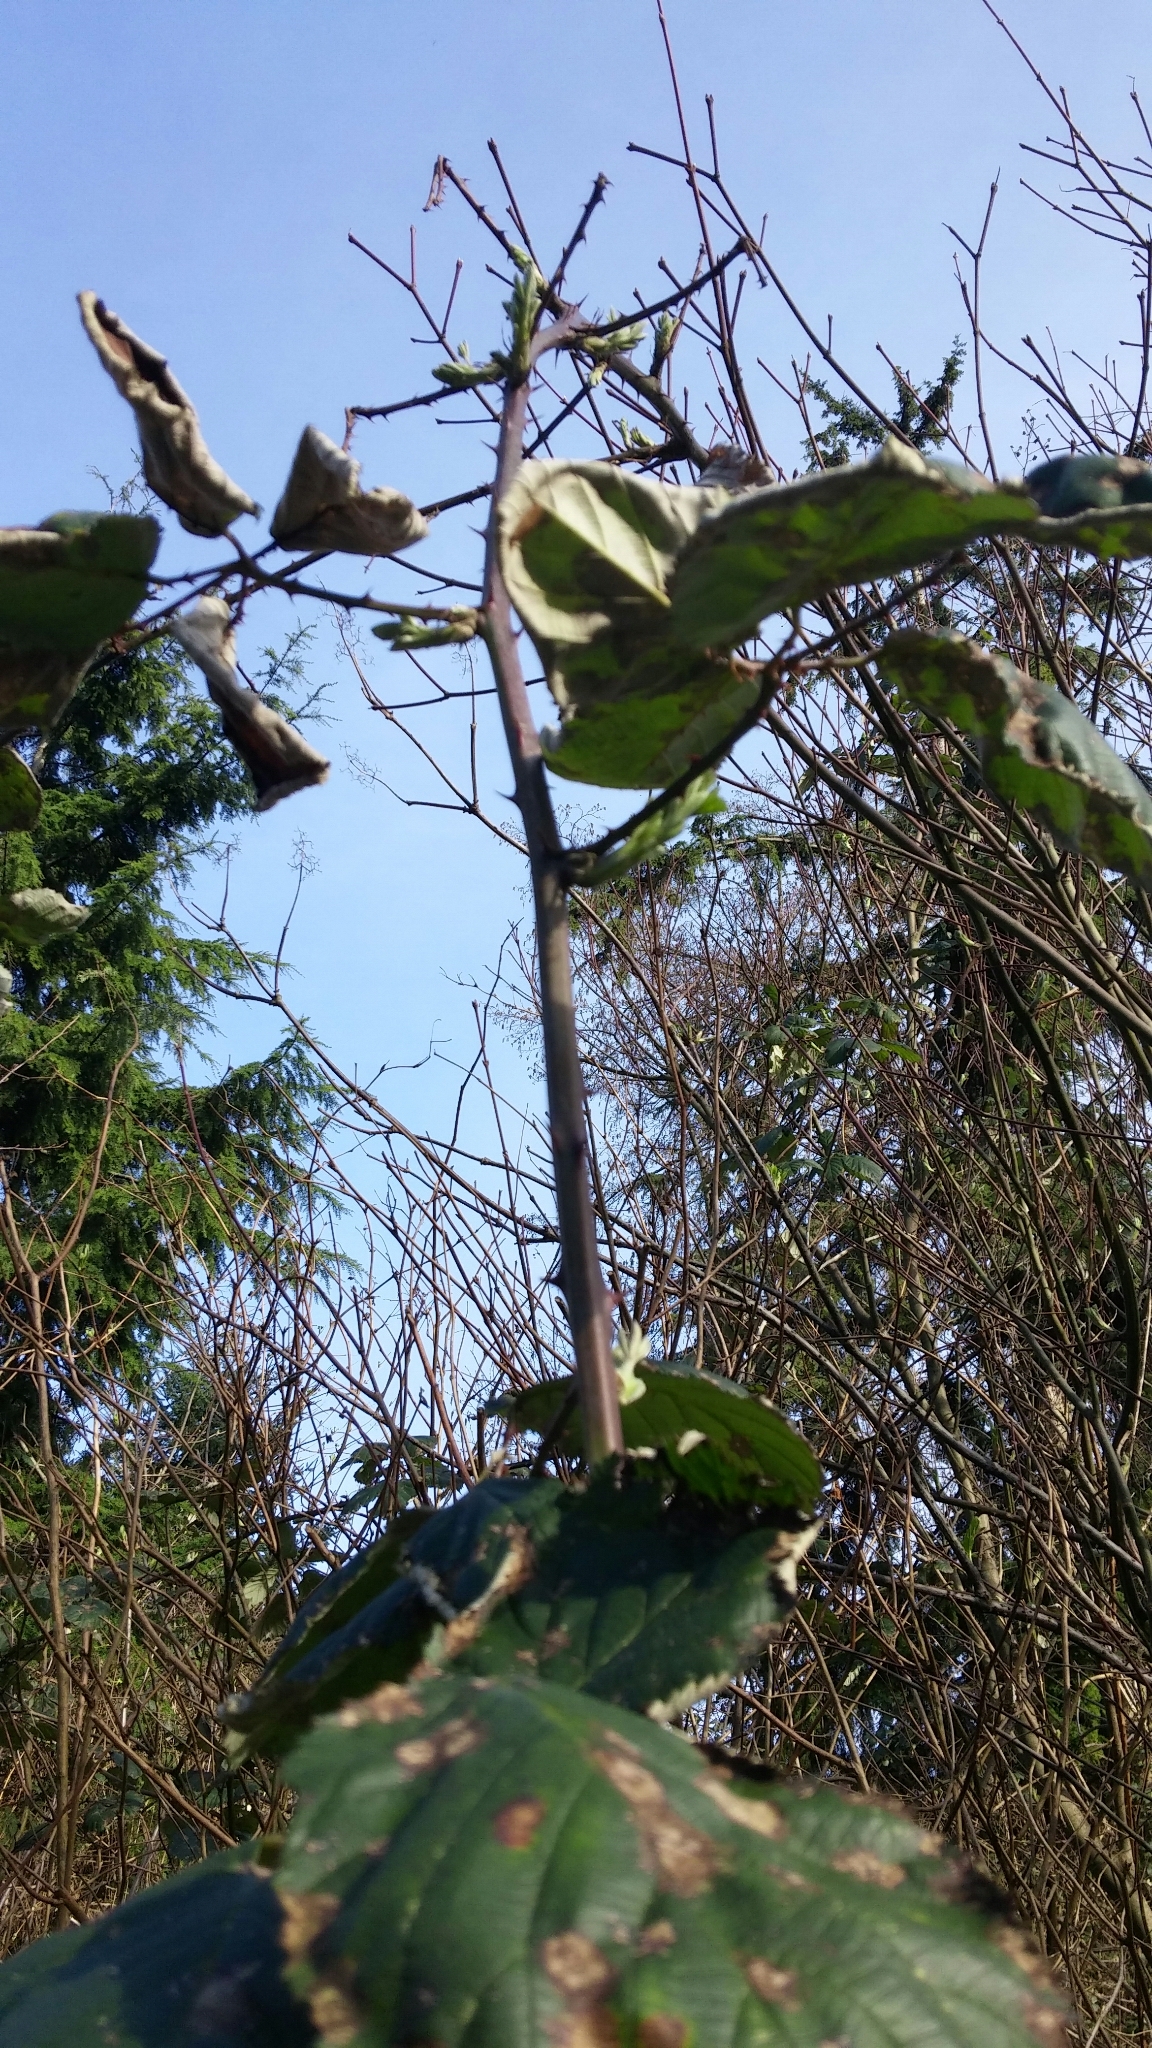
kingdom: Plantae
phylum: Tracheophyta
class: Magnoliopsida
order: Rosales
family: Rosaceae
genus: Rubus
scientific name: Rubus armeniacus
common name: Himalayan blackberry
